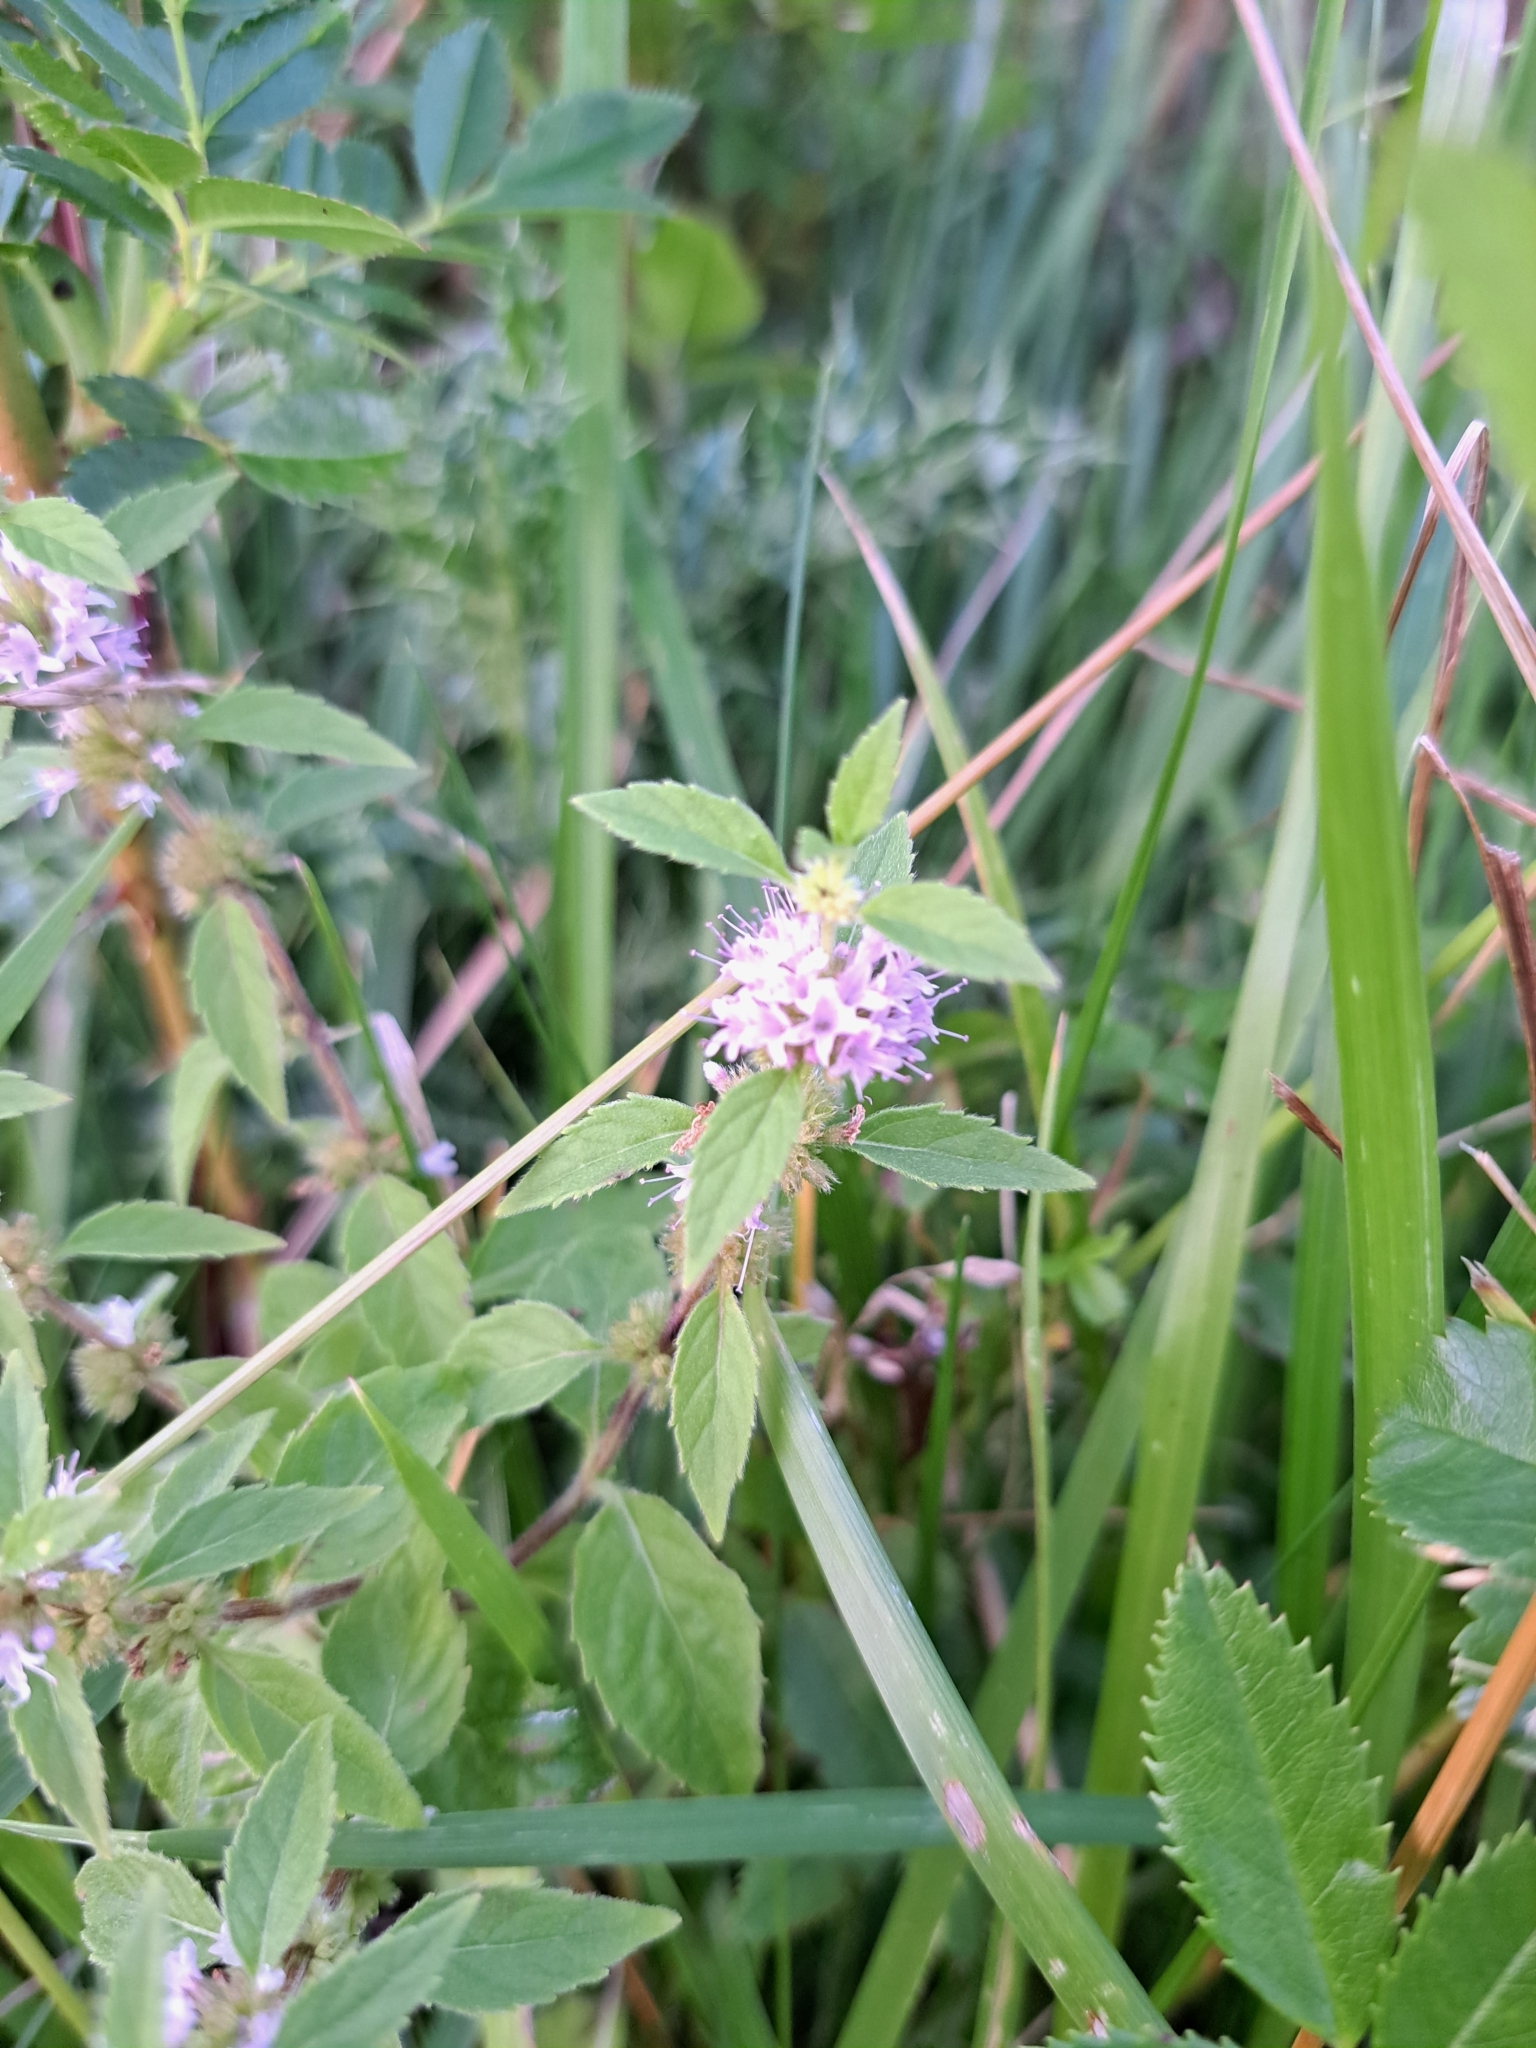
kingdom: Plantae
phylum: Tracheophyta
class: Magnoliopsida
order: Lamiales
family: Lamiaceae
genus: Mentha
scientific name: Mentha canadensis
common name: American corn mint
